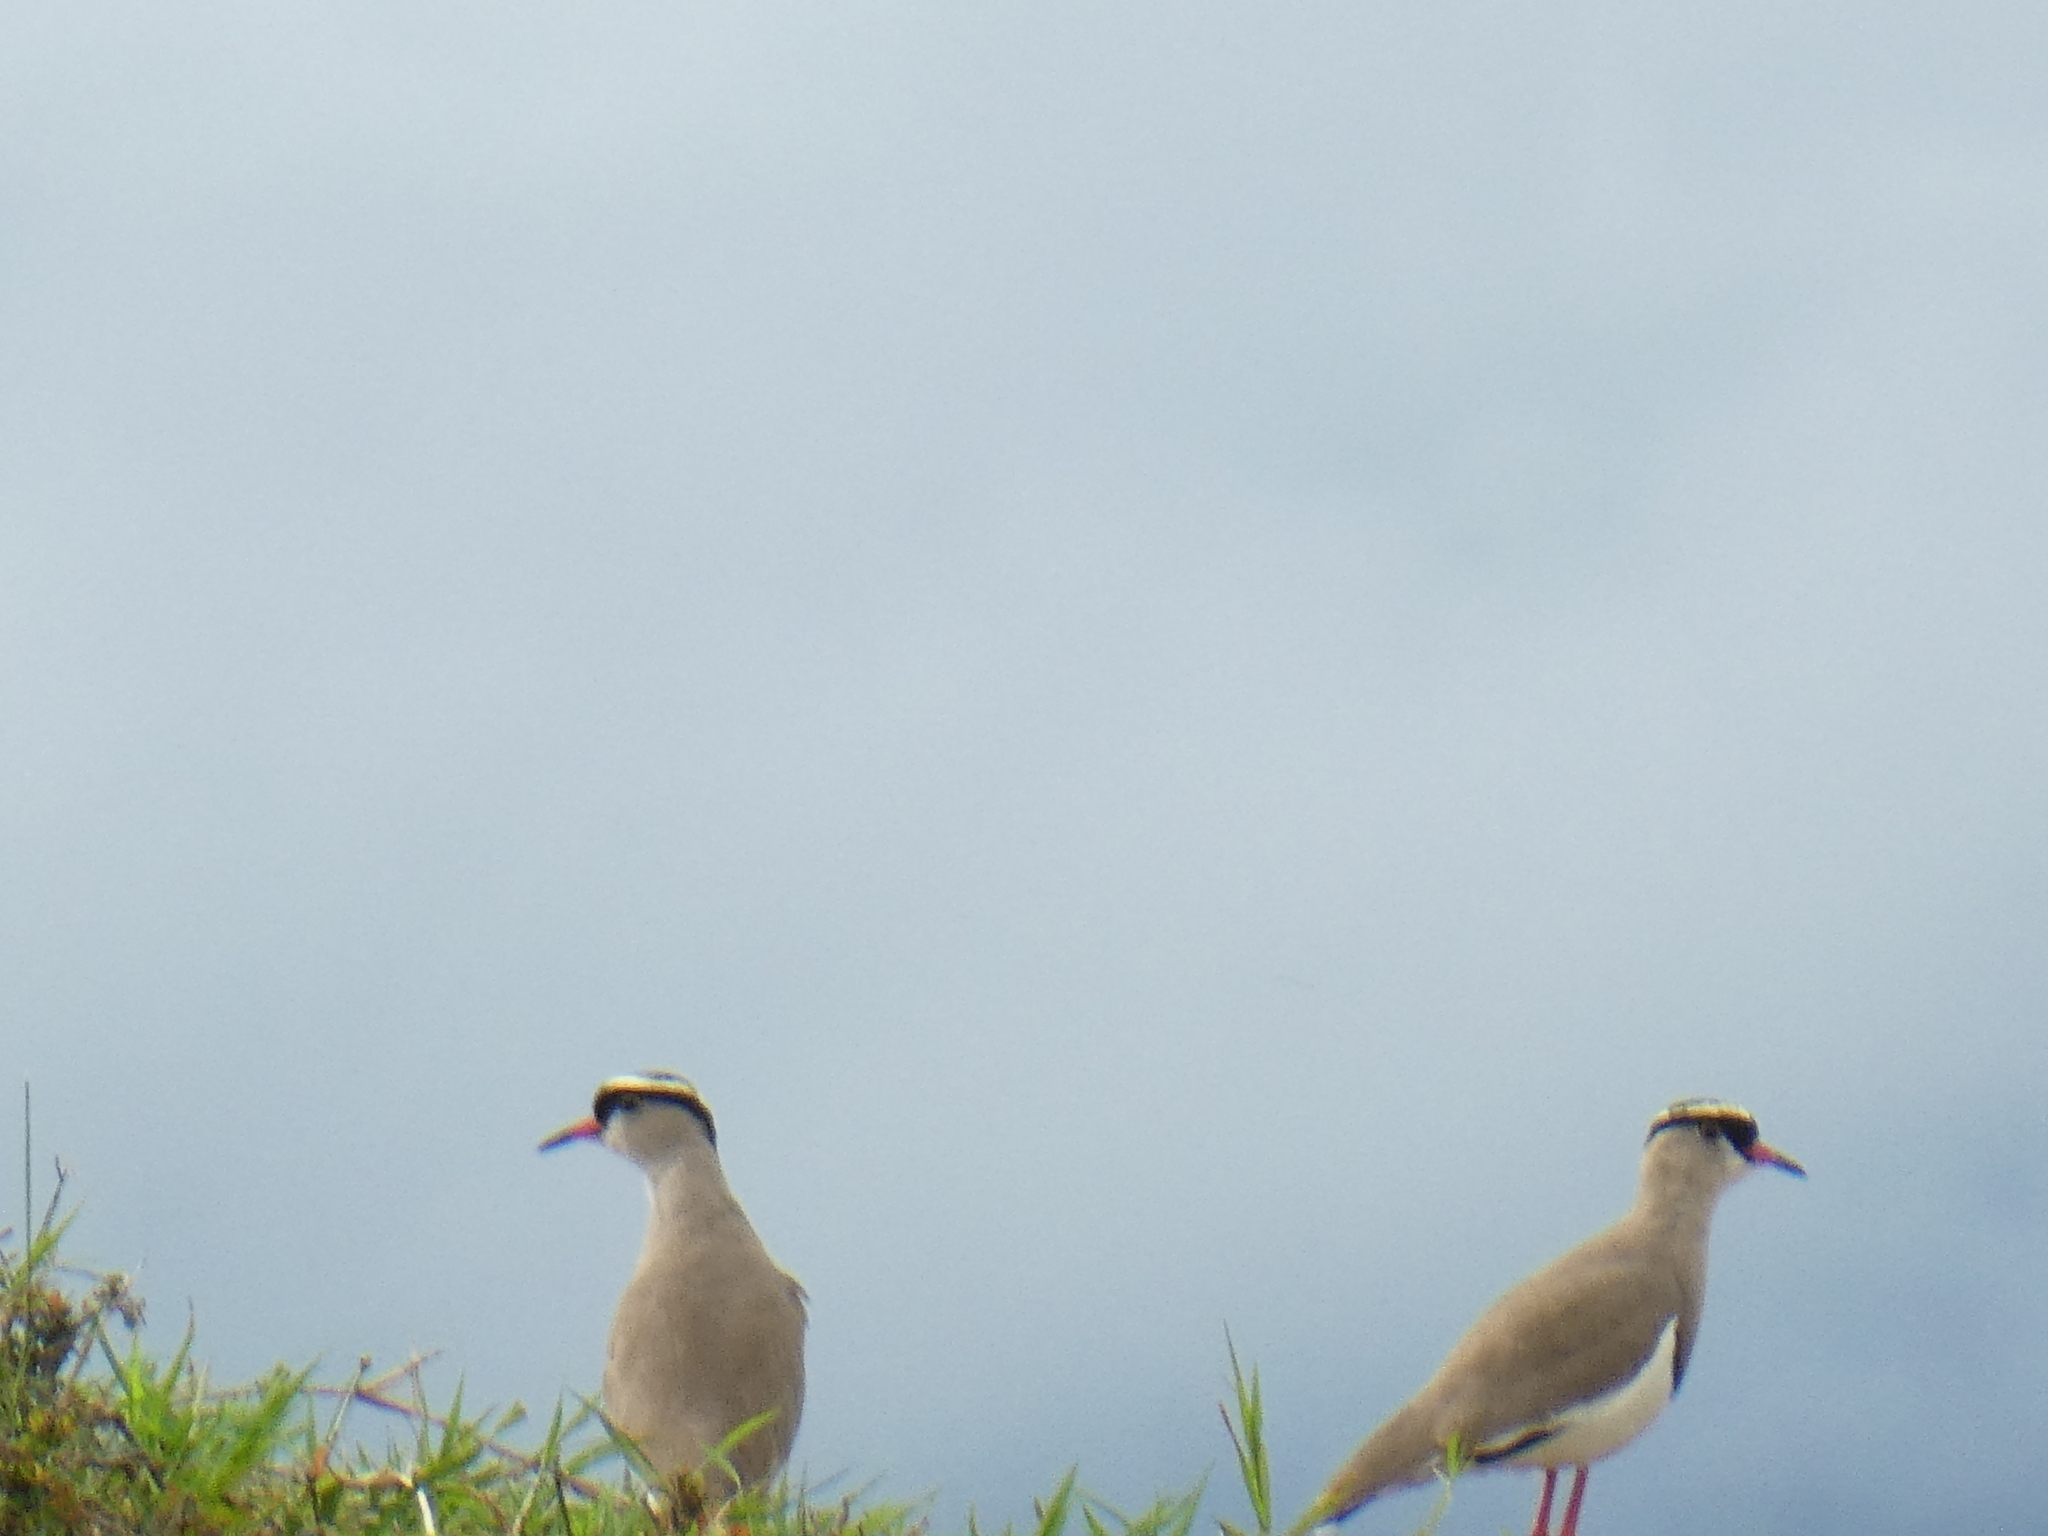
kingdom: Animalia
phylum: Chordata
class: Aves
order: Charadriiformes
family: Charadriidae
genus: Vanellus
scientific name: Vanellus coronatus
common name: Crowned lapwing
